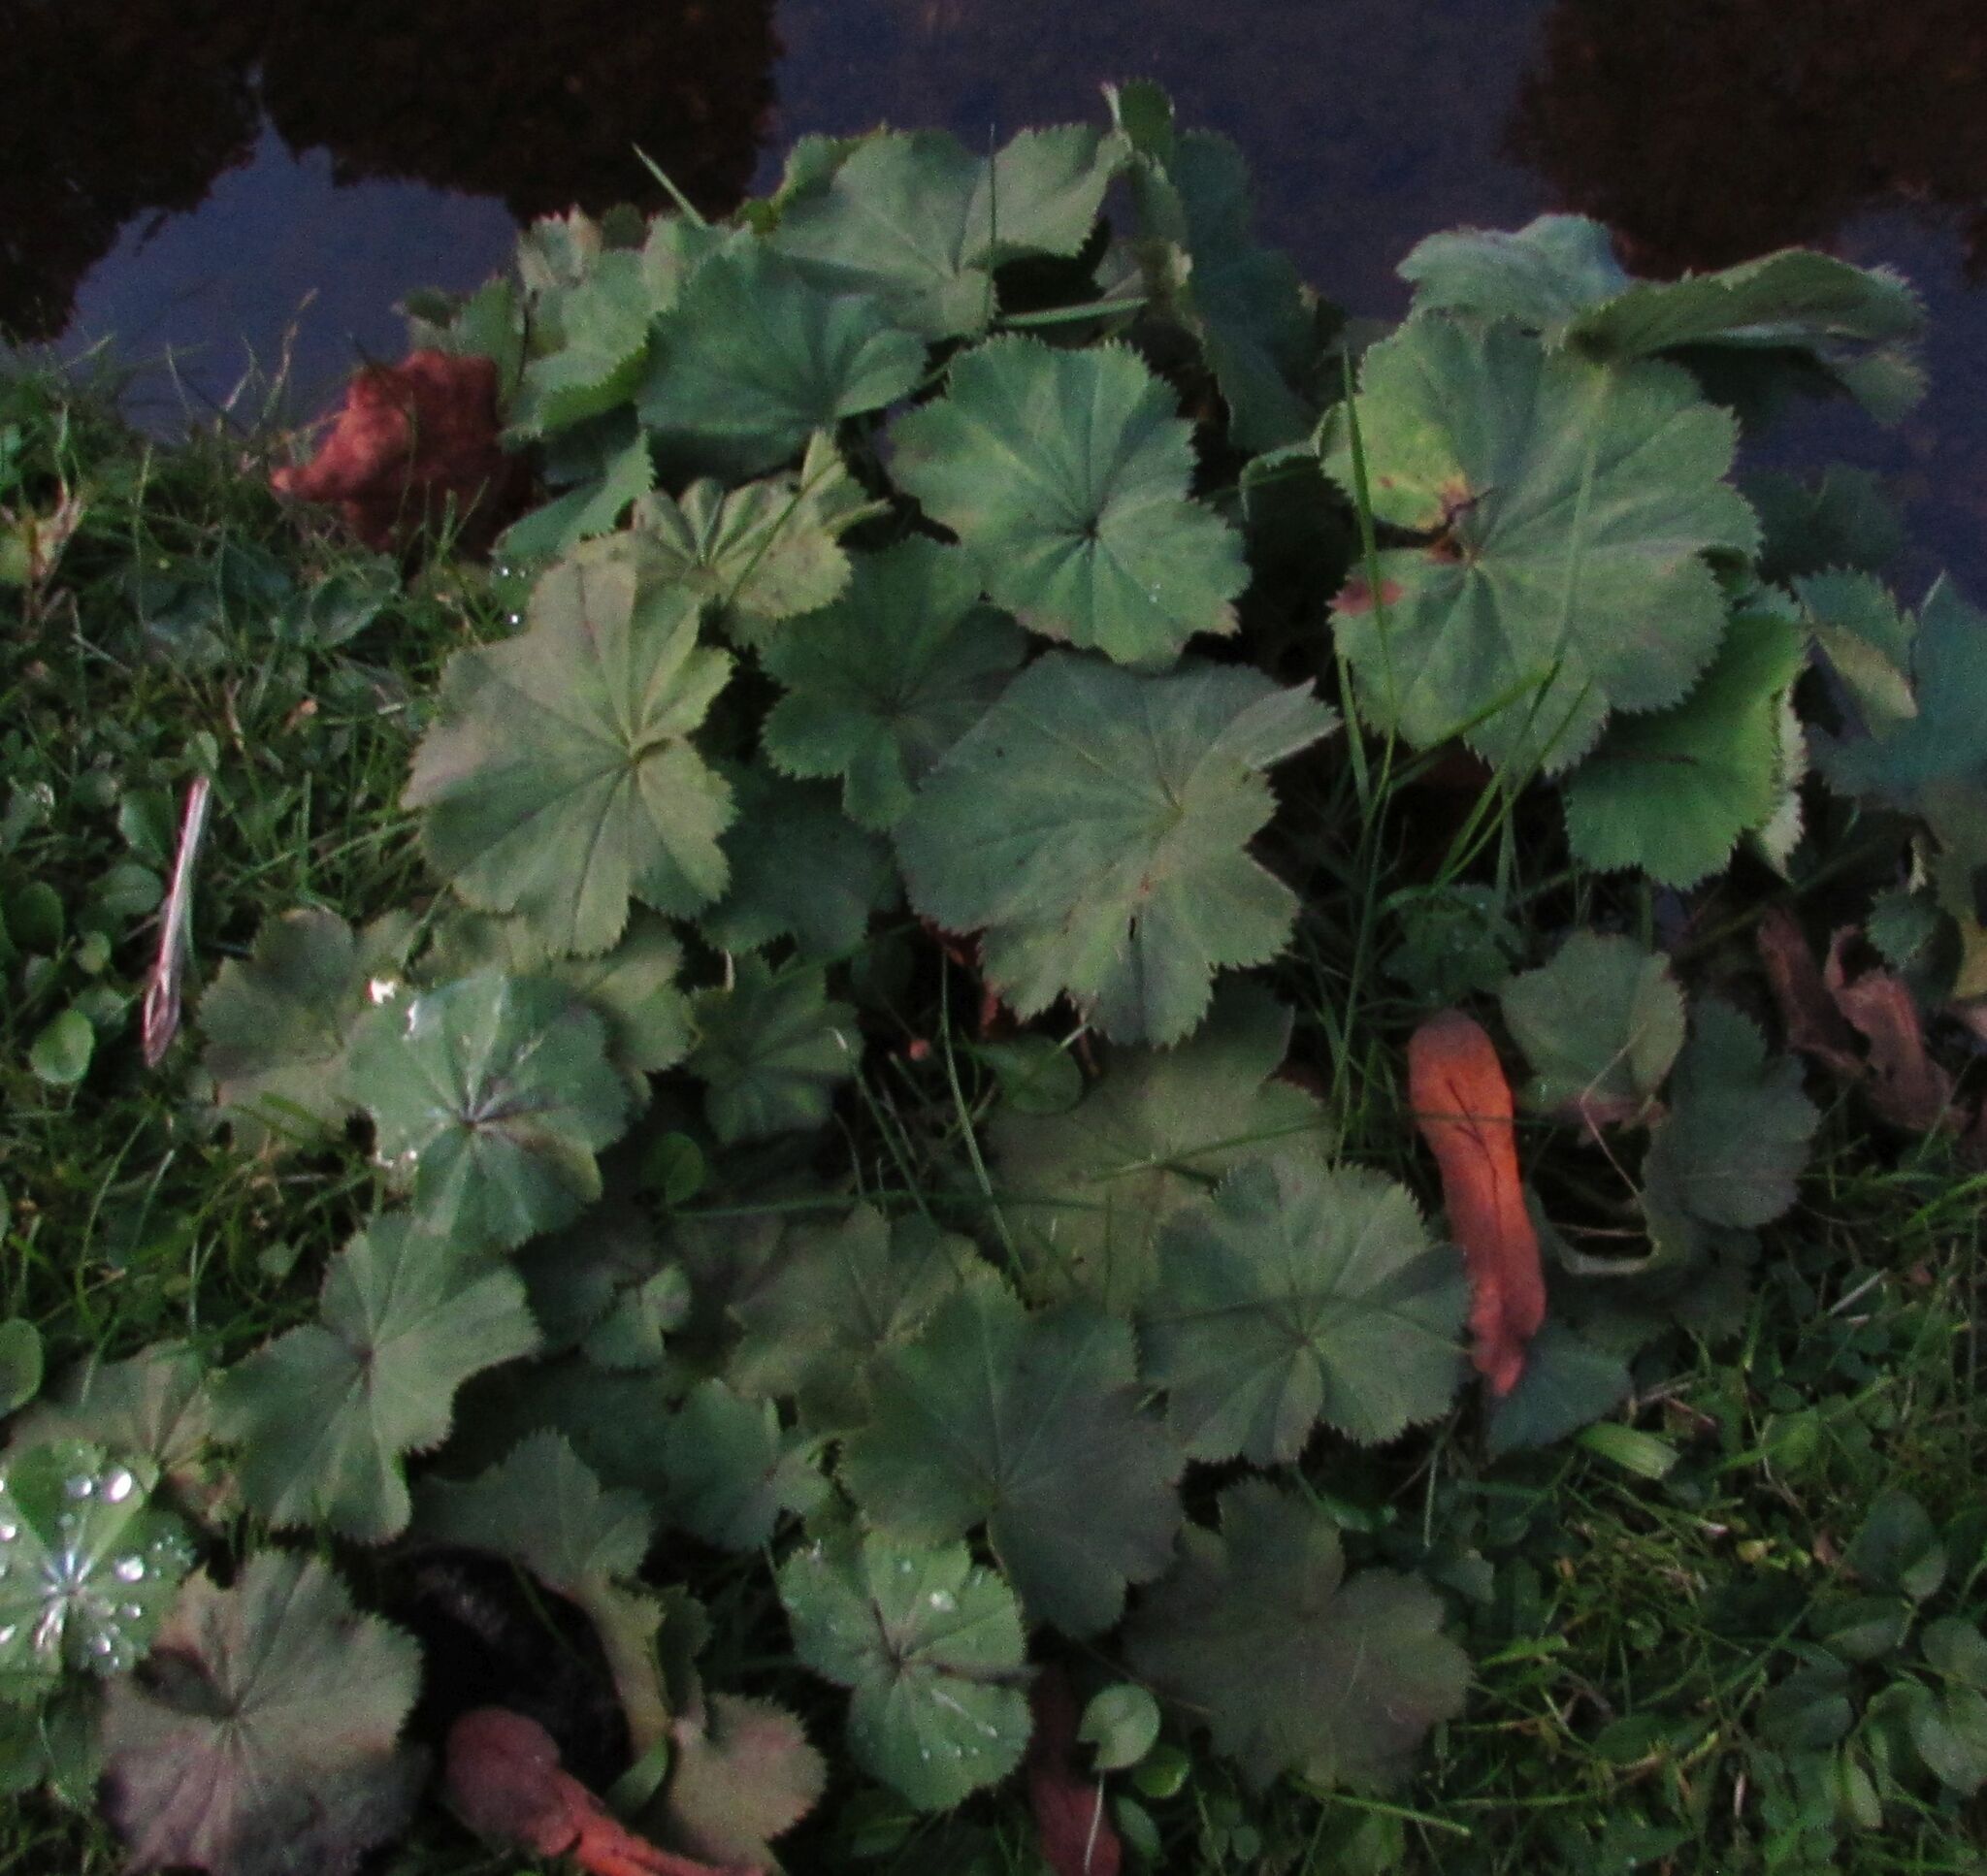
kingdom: Plantae
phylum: Tracheophyta
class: Magnoliopsida
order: Rosales
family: Rosaceae
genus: Alchemilla
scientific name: Alchemilla mollis
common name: Lady's-mantle
